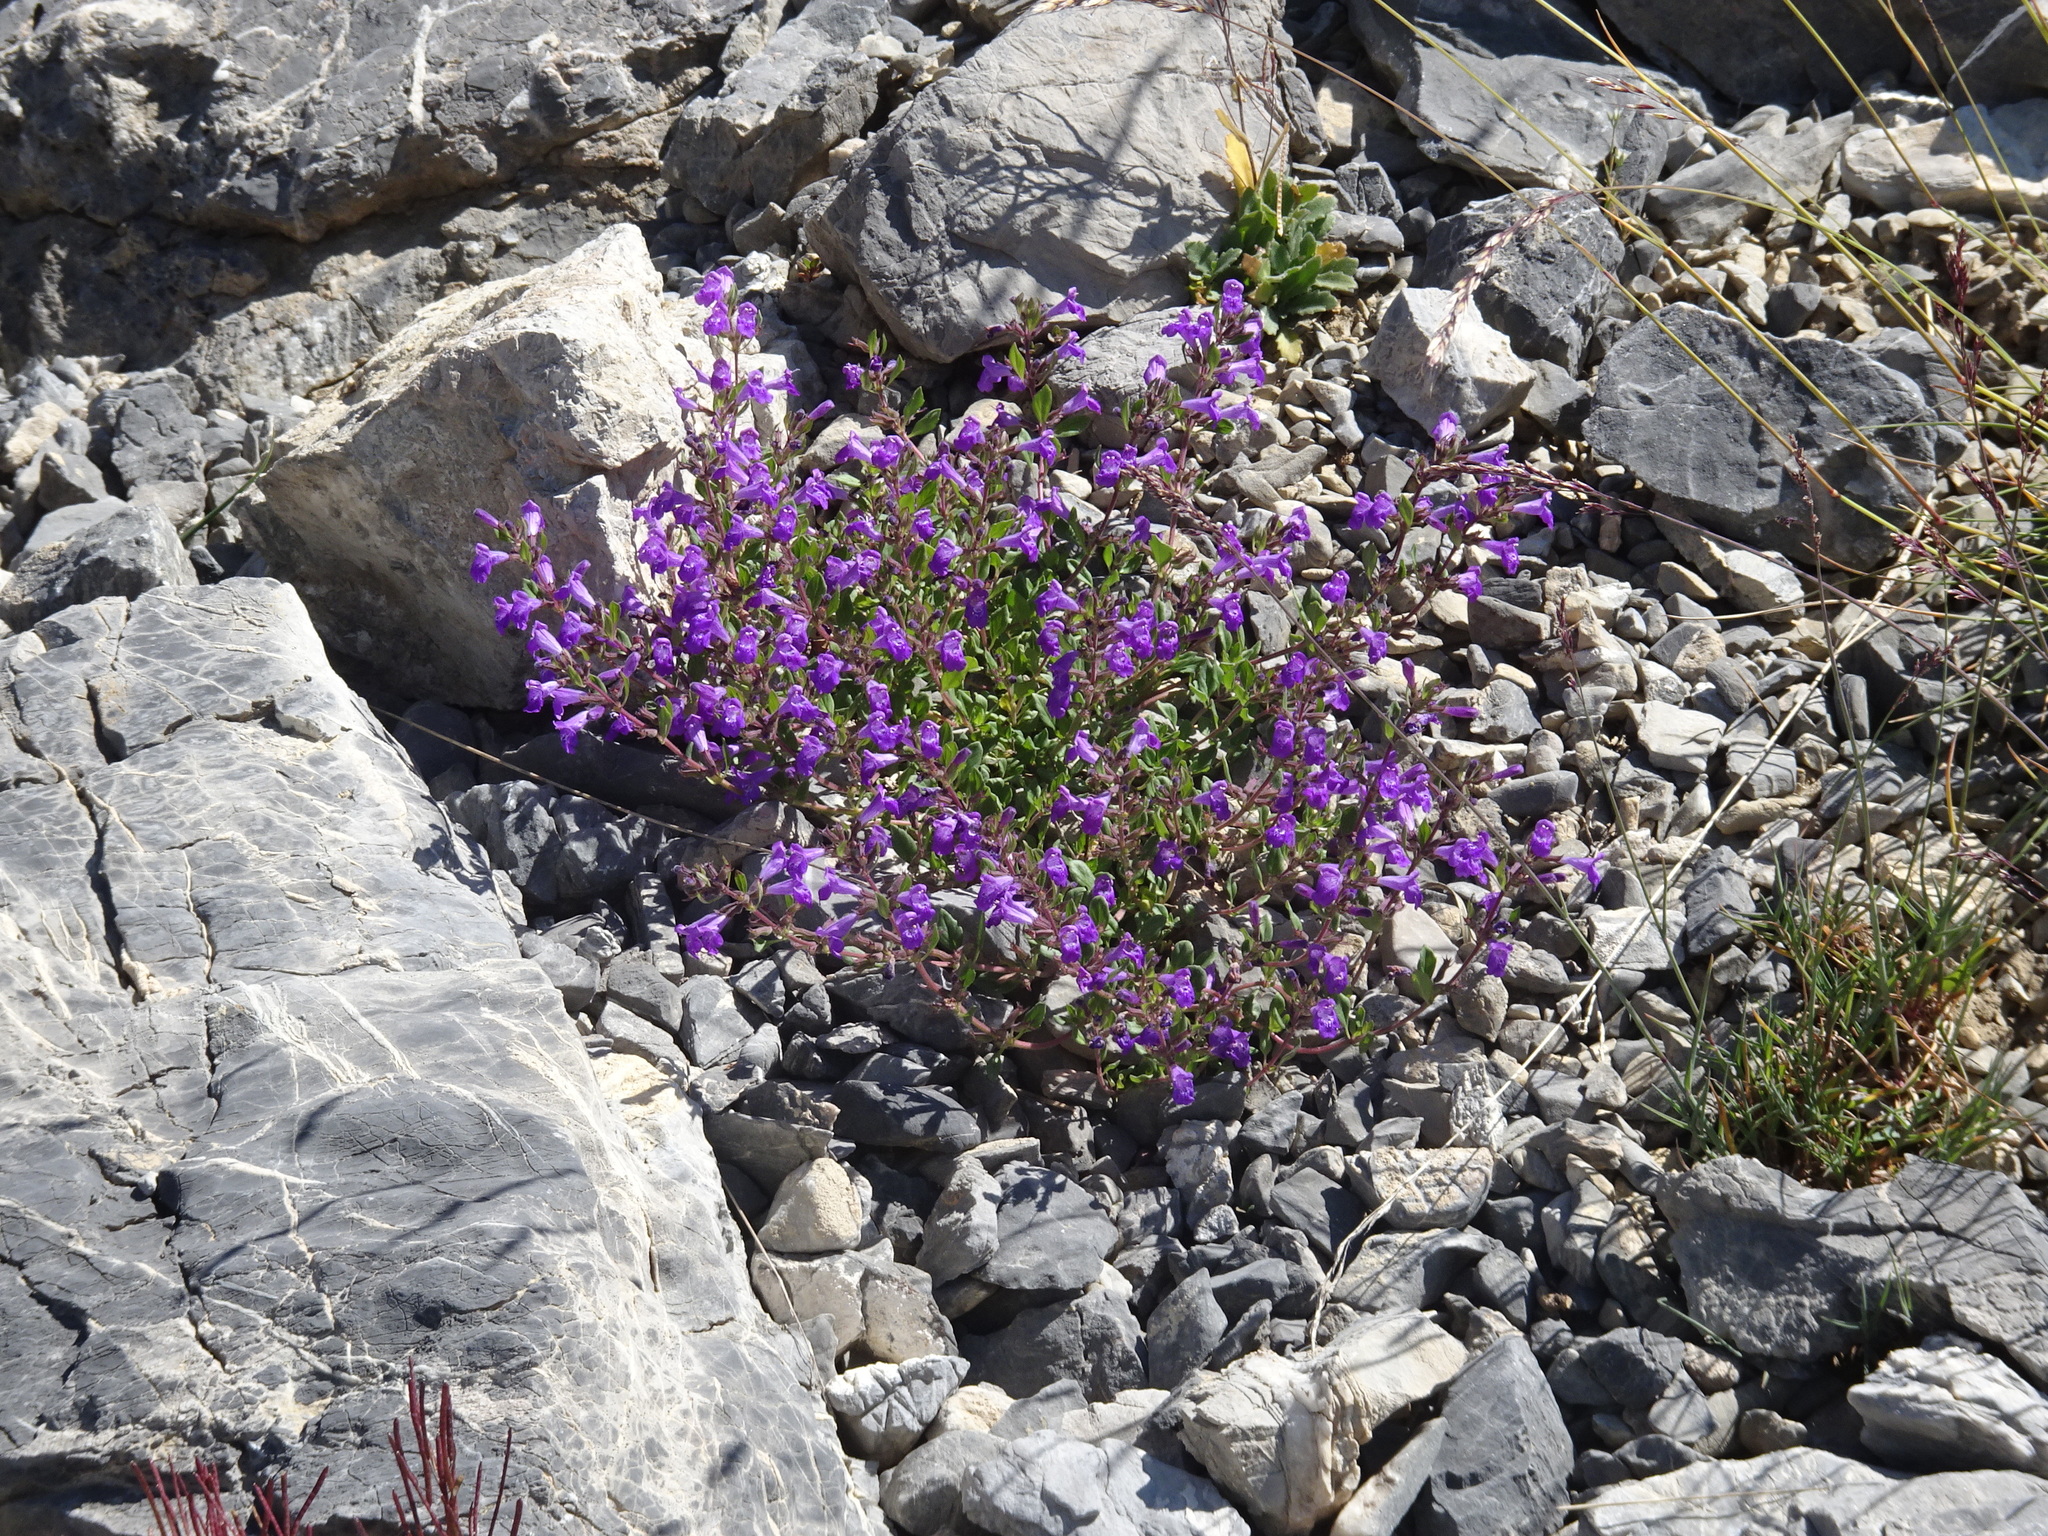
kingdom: Plantae
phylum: Tracheophyta
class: Magnoliopsida
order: Lamiales
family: Lamiaceae
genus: Clinopodium
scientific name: Clinopodium alpinum
